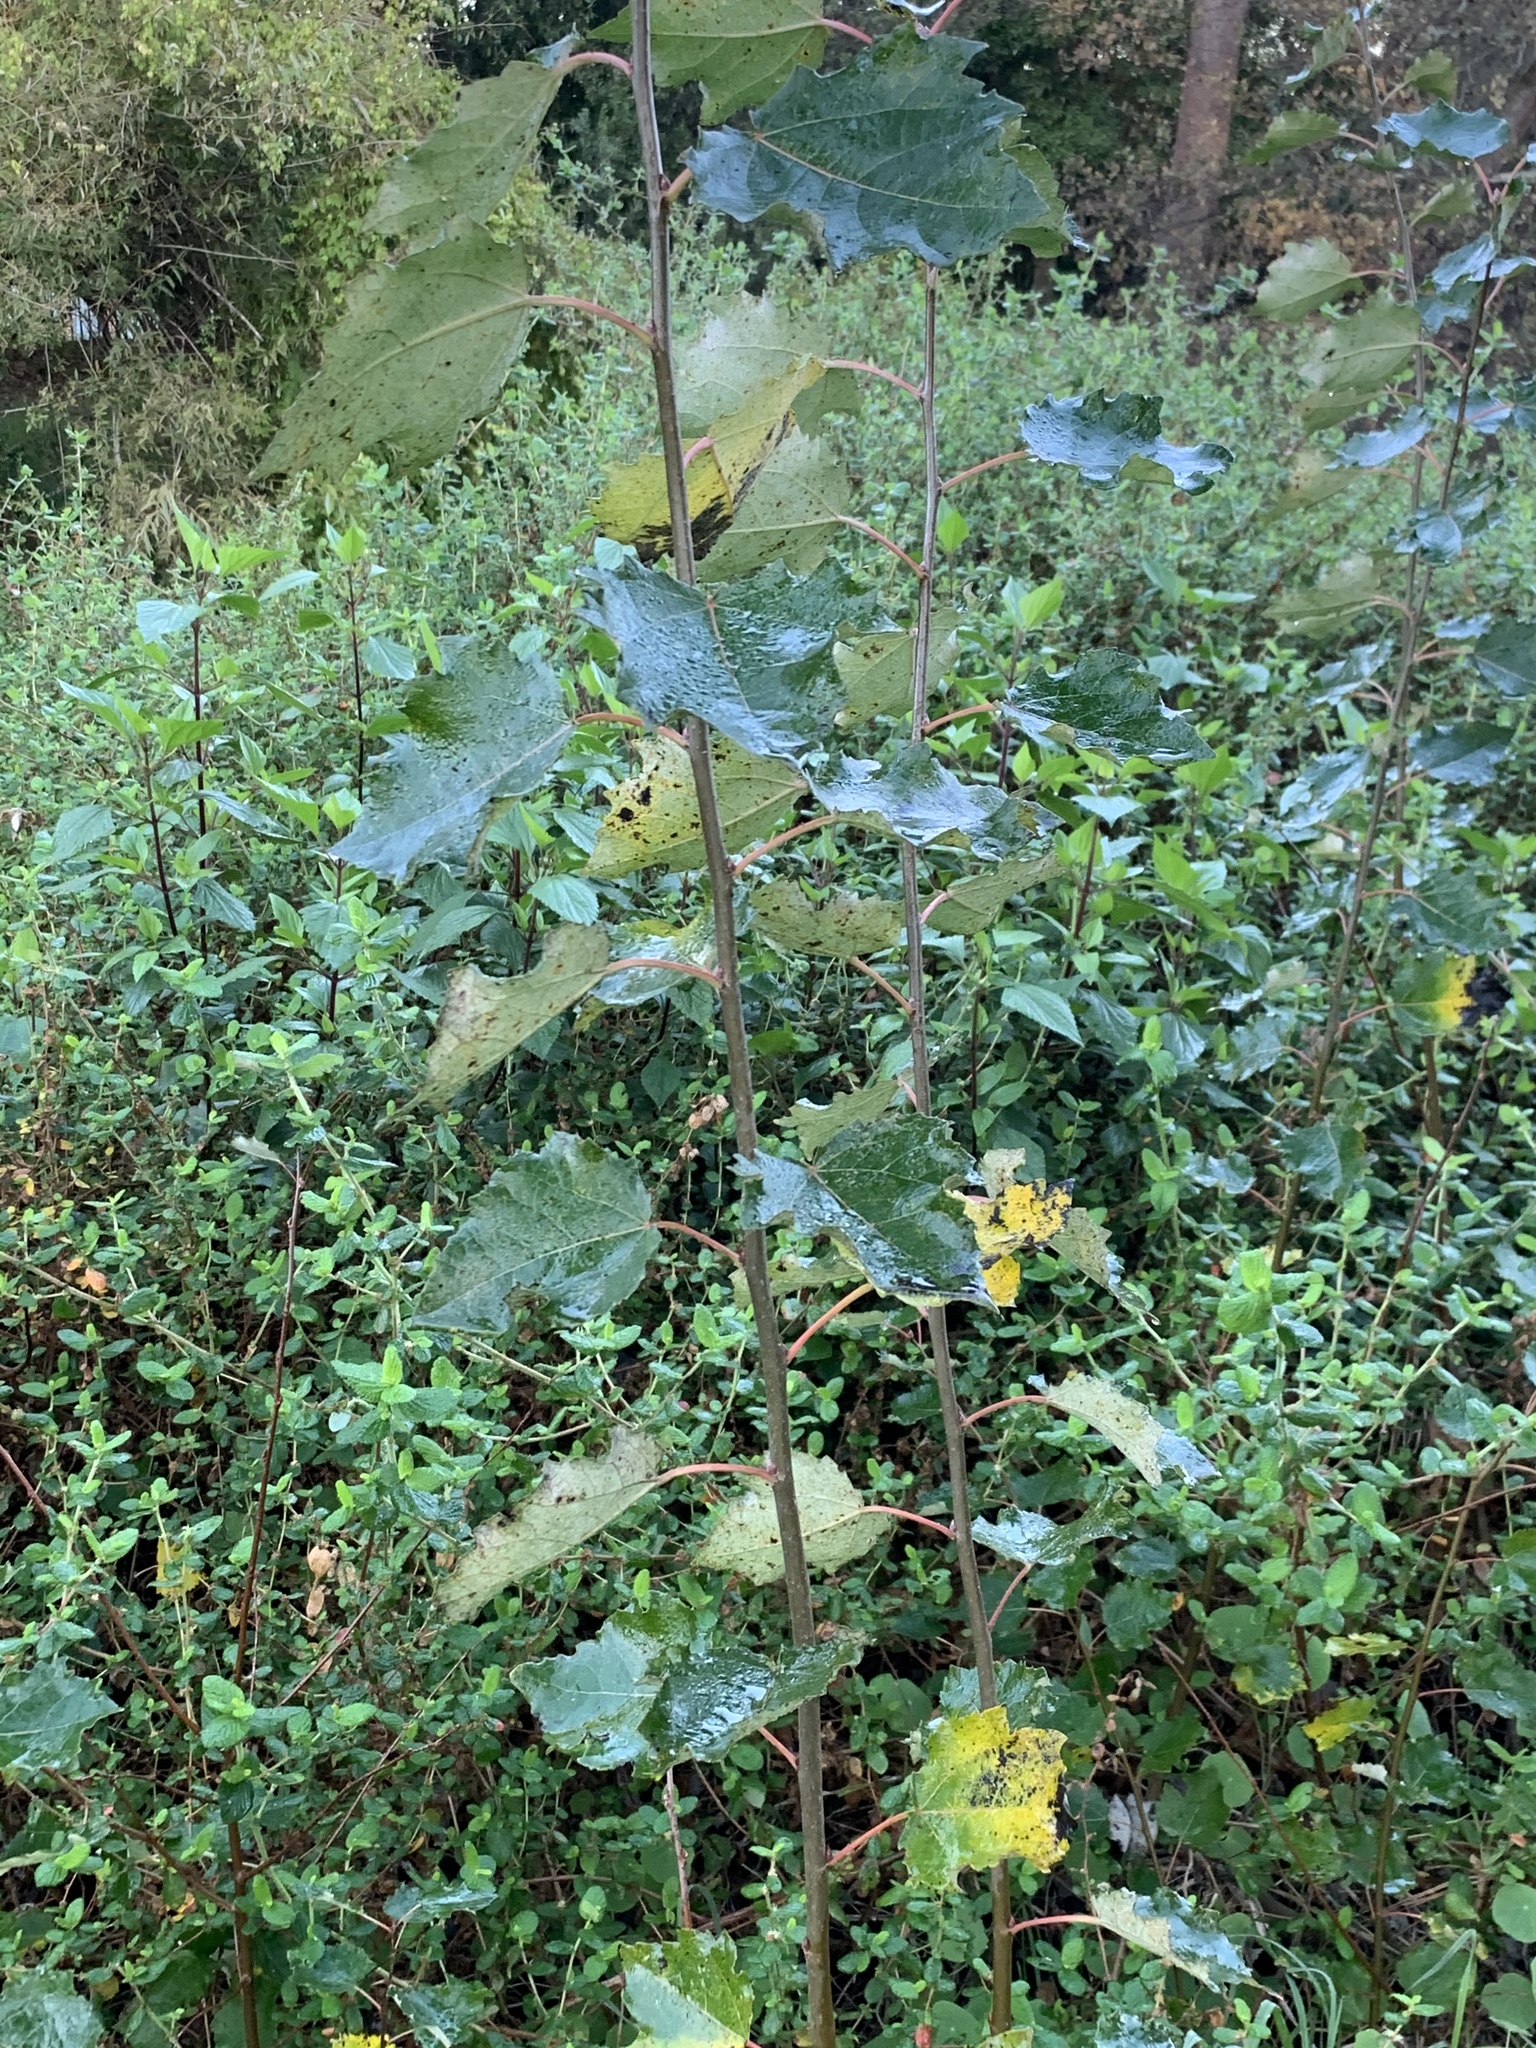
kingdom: Plantae
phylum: Tracheophyta
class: Magnoliopsida
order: Malpighiales
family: Salicaceae
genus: Populus
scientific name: Populus canescens
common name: Gray poplar
